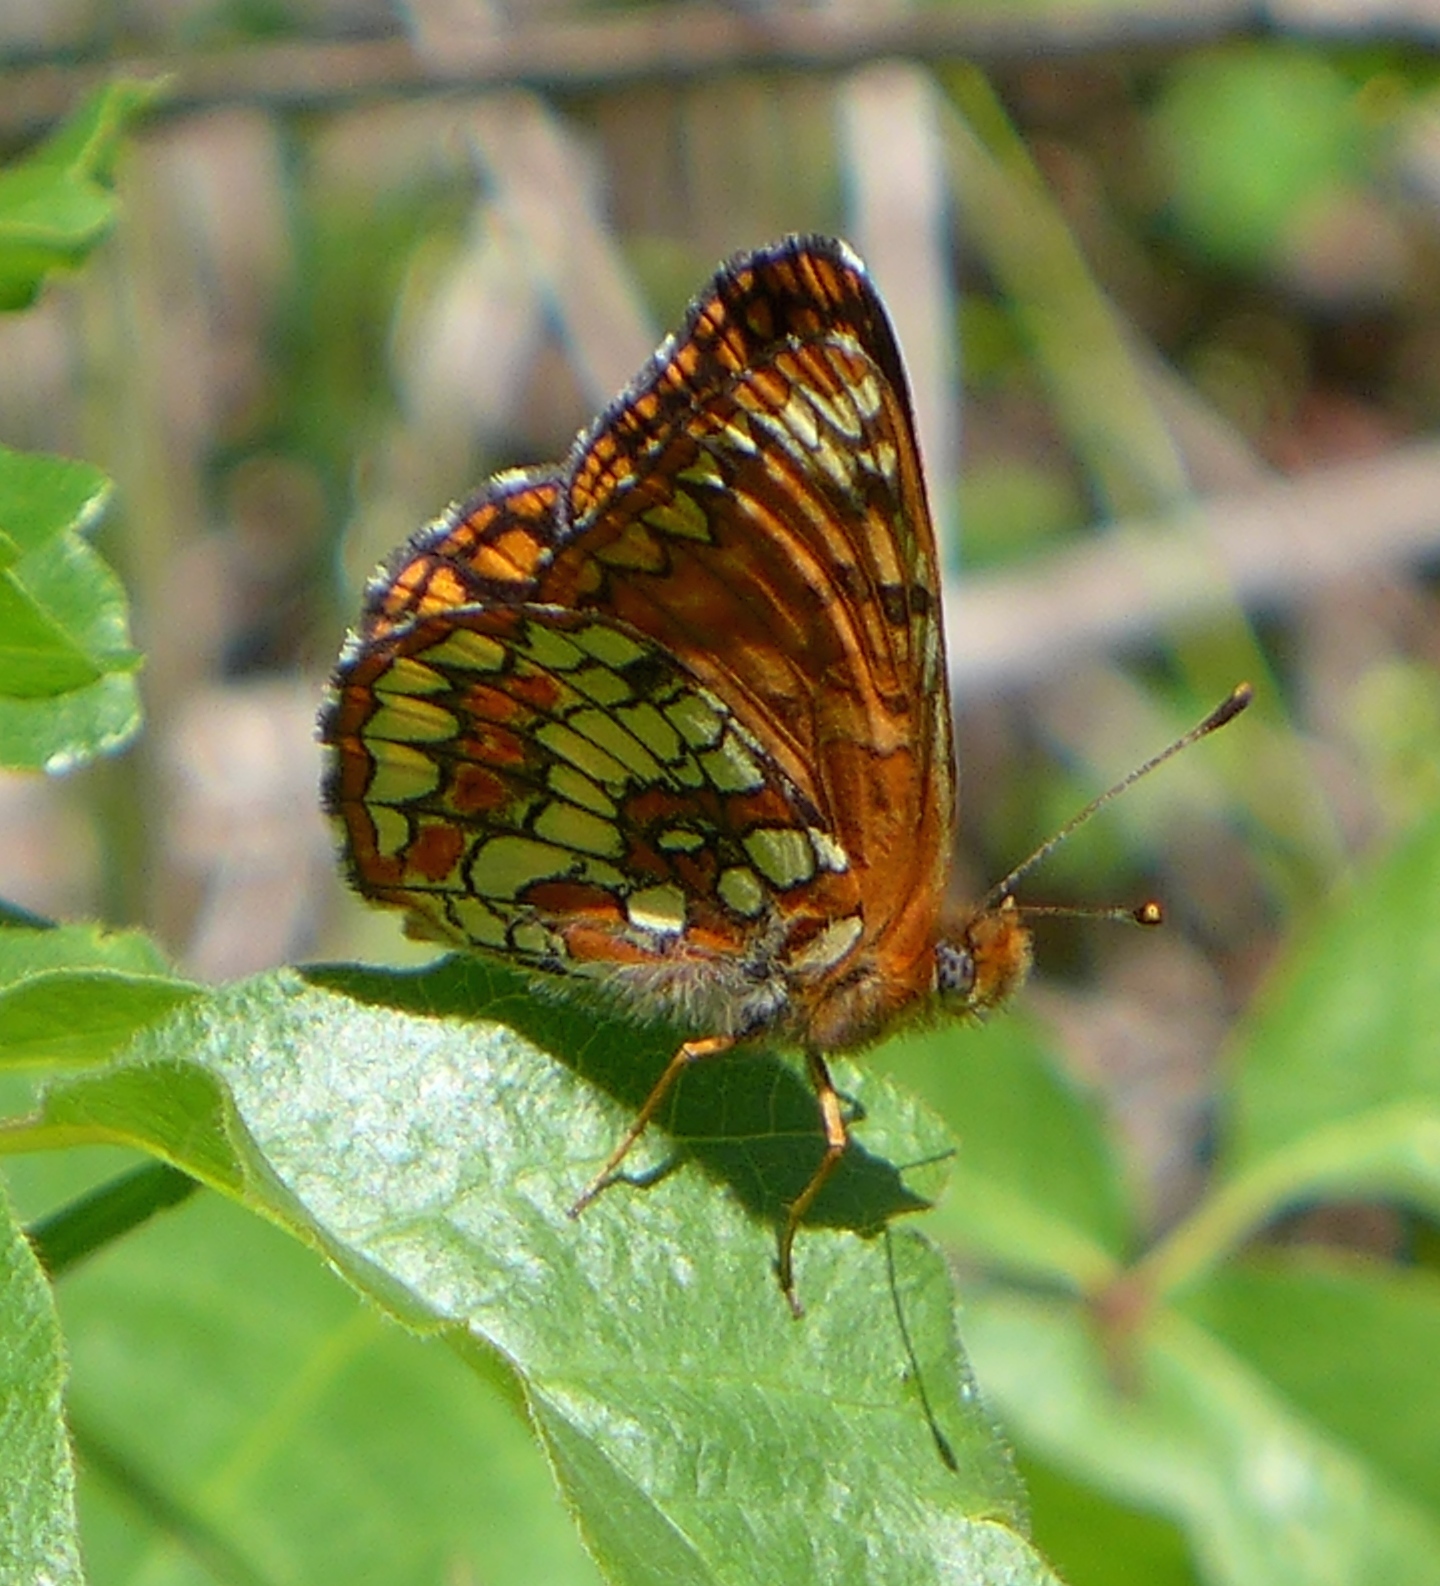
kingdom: Animalia
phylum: Arthropoda
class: Insecta
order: Lepidoptera
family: Nymphalidae
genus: Chlosyne
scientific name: Chlosyne palla
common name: Northern checkerspot
